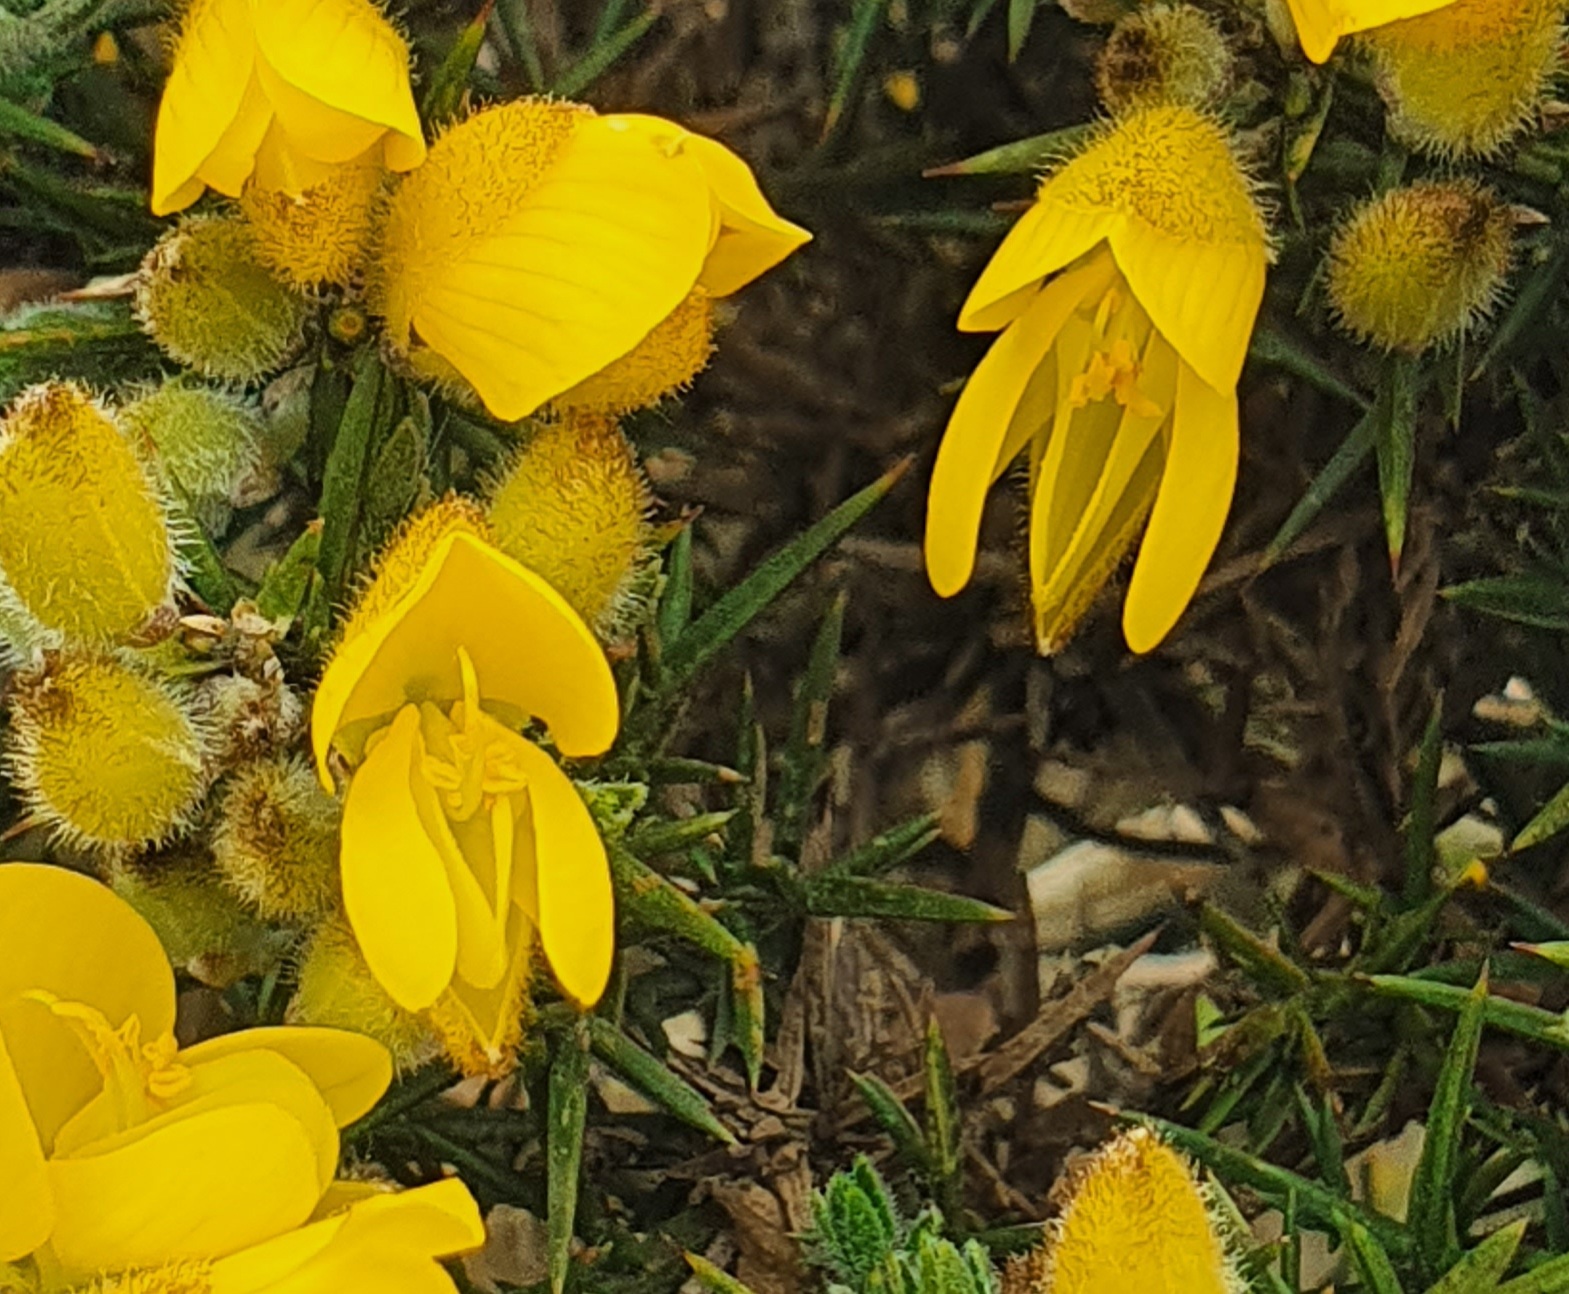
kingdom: Plantae
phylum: Tracheophyta
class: Magnoliopsida
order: Fabales
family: Fabaceae
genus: Ulex
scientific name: Ulex europaeus
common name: Common gorse
